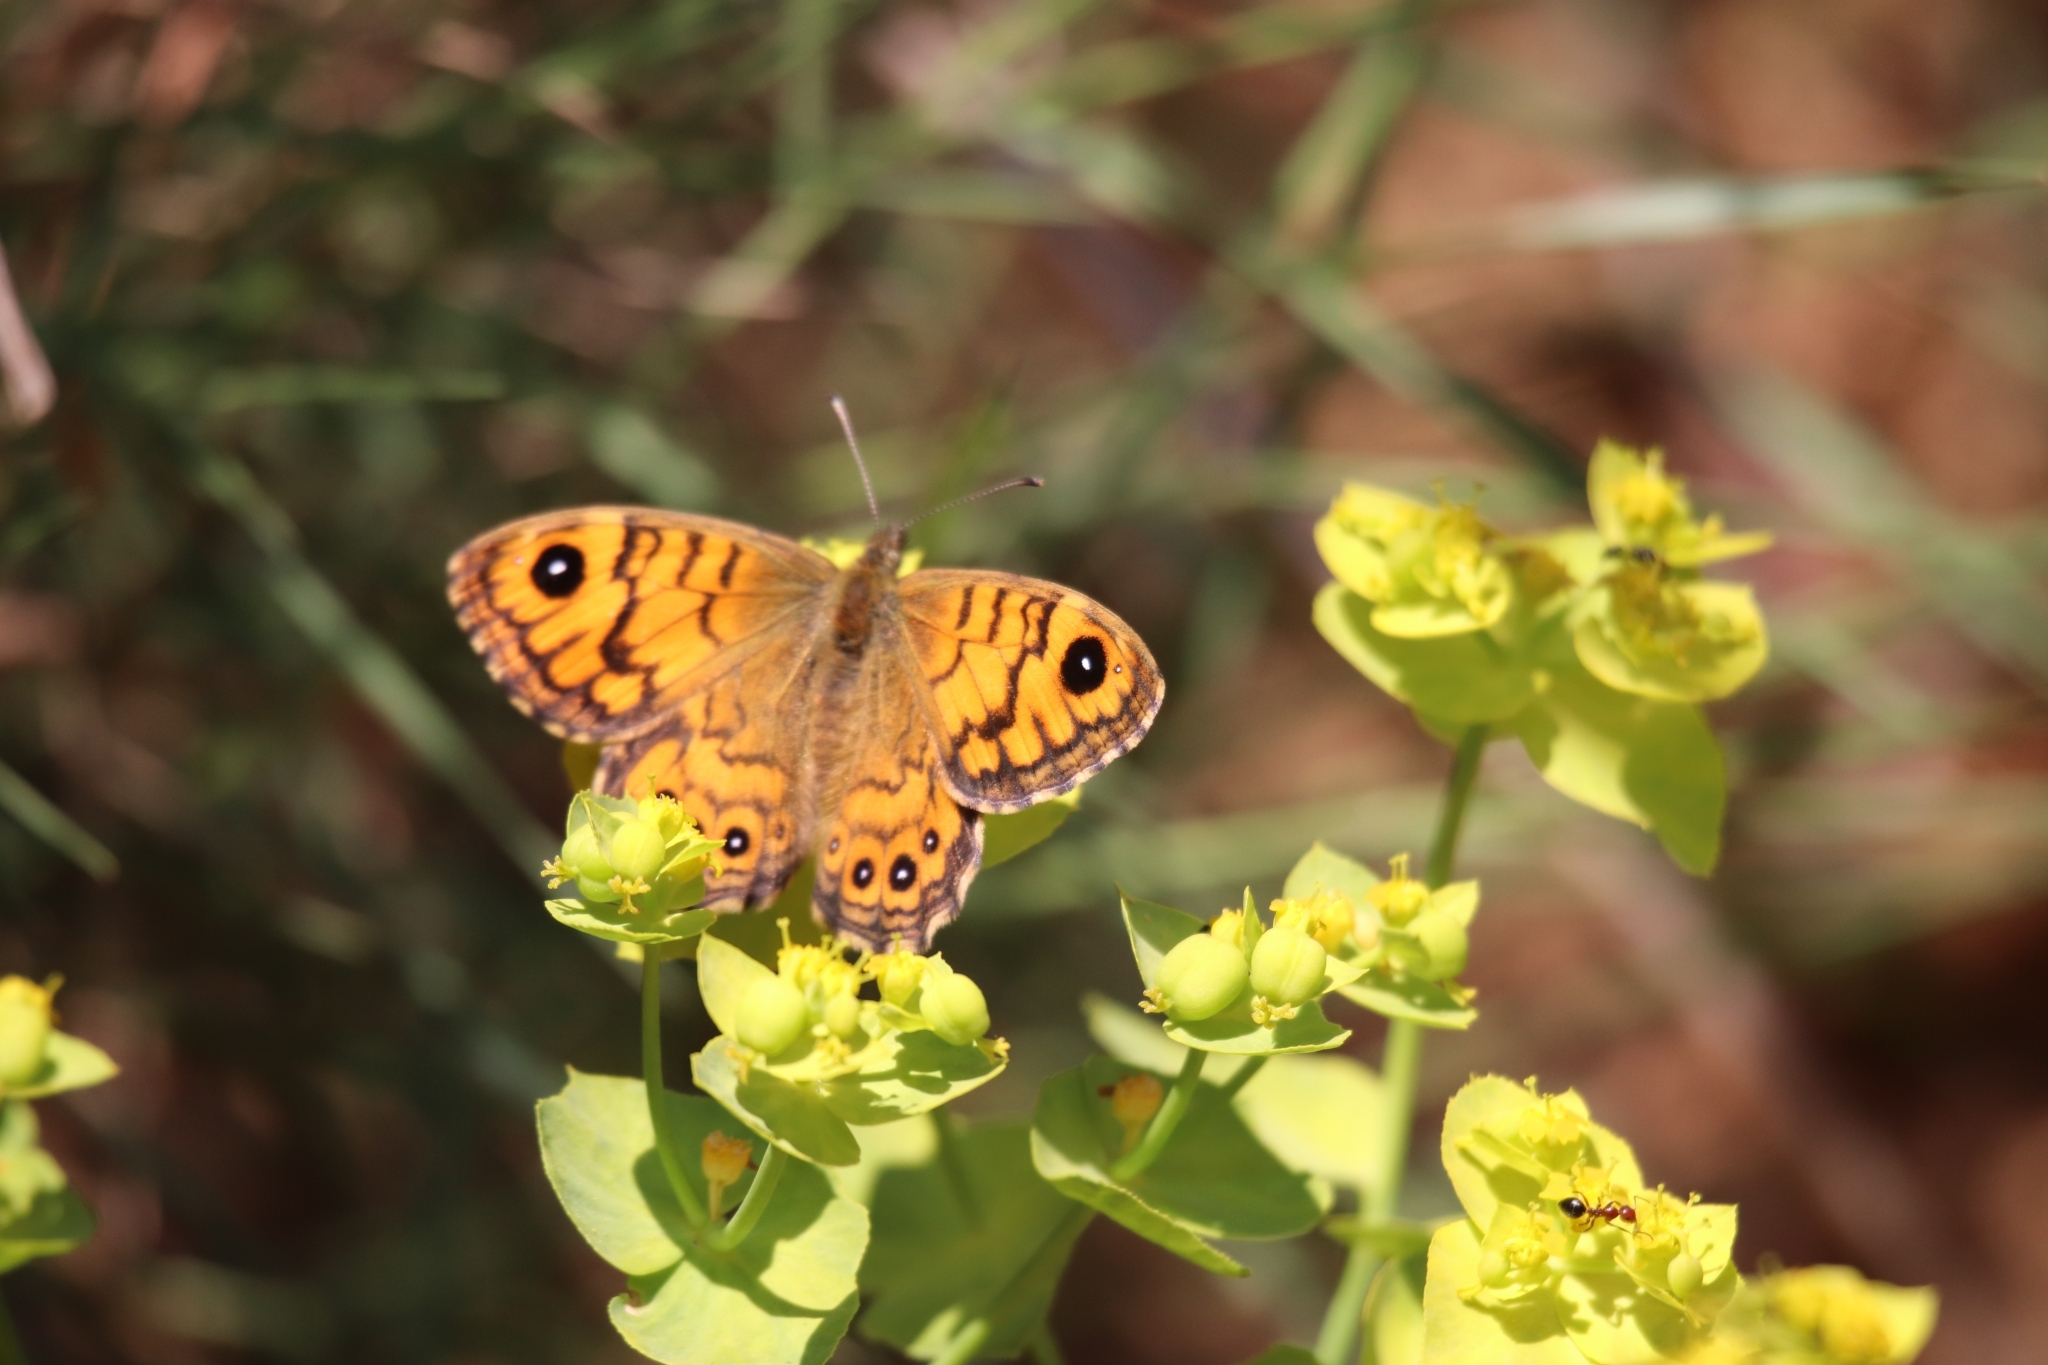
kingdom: Animalia
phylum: Arthropoda
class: Insecta
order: Lepidoptera
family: Nymphalidae
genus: Pararge
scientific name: Pararge Lasiommata megera
